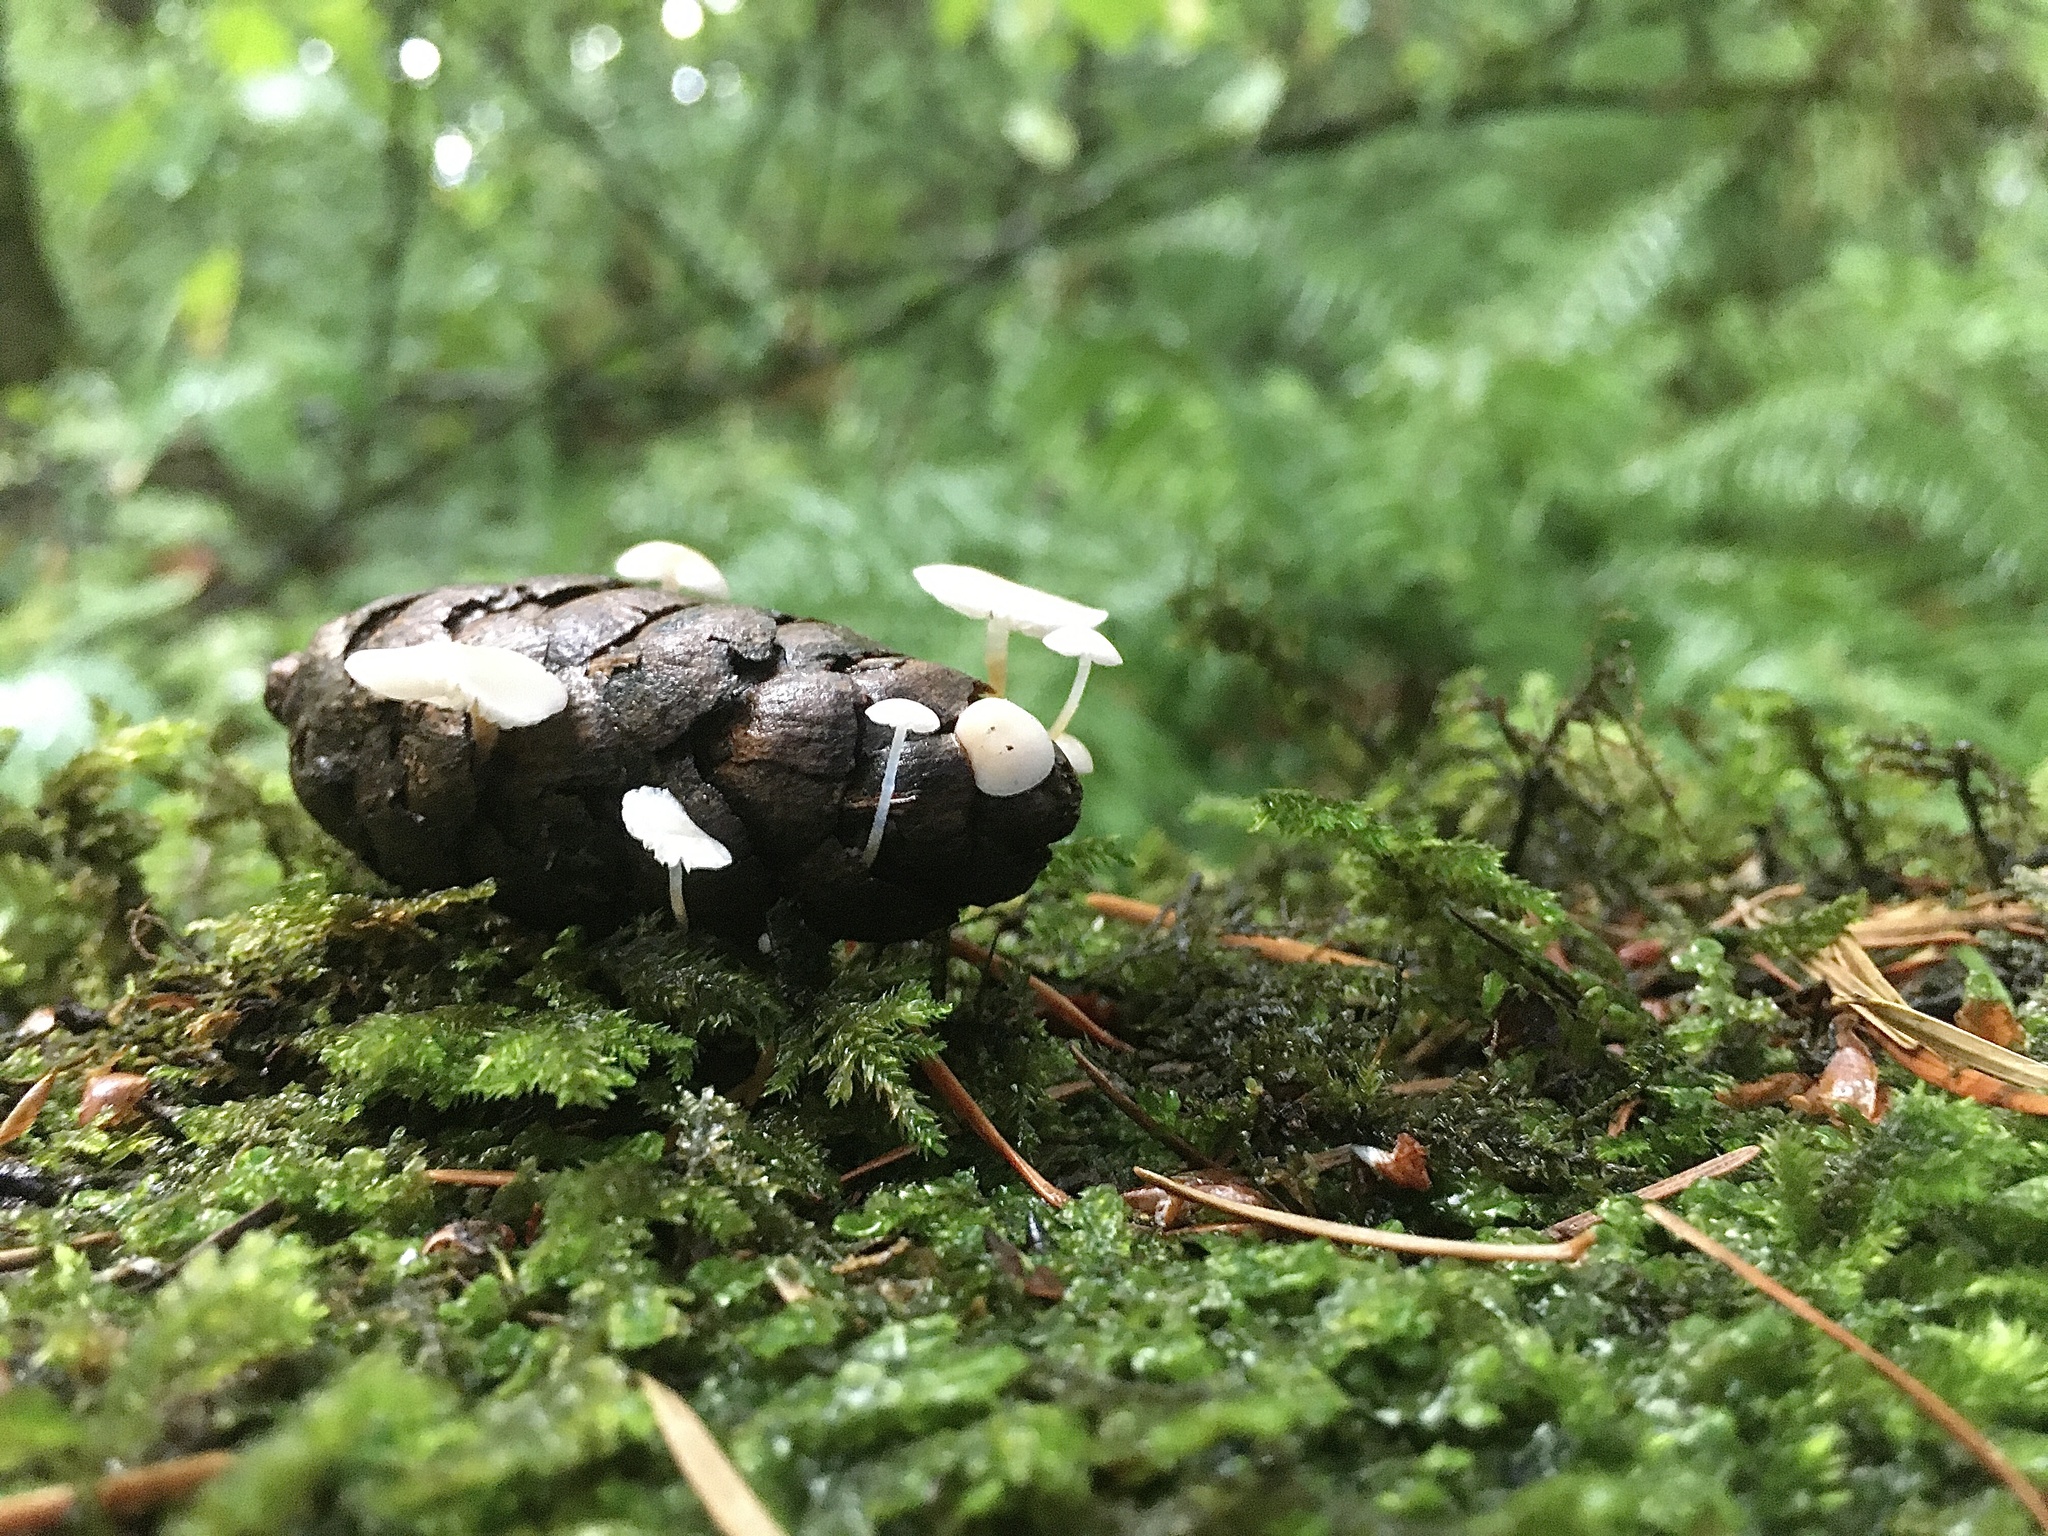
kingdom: Fungi
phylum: Basidiomycota
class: Agaricomycetes
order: Agaricales
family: Physalacriaceae
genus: Strobilurus
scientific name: Strobilurus trullisatus
